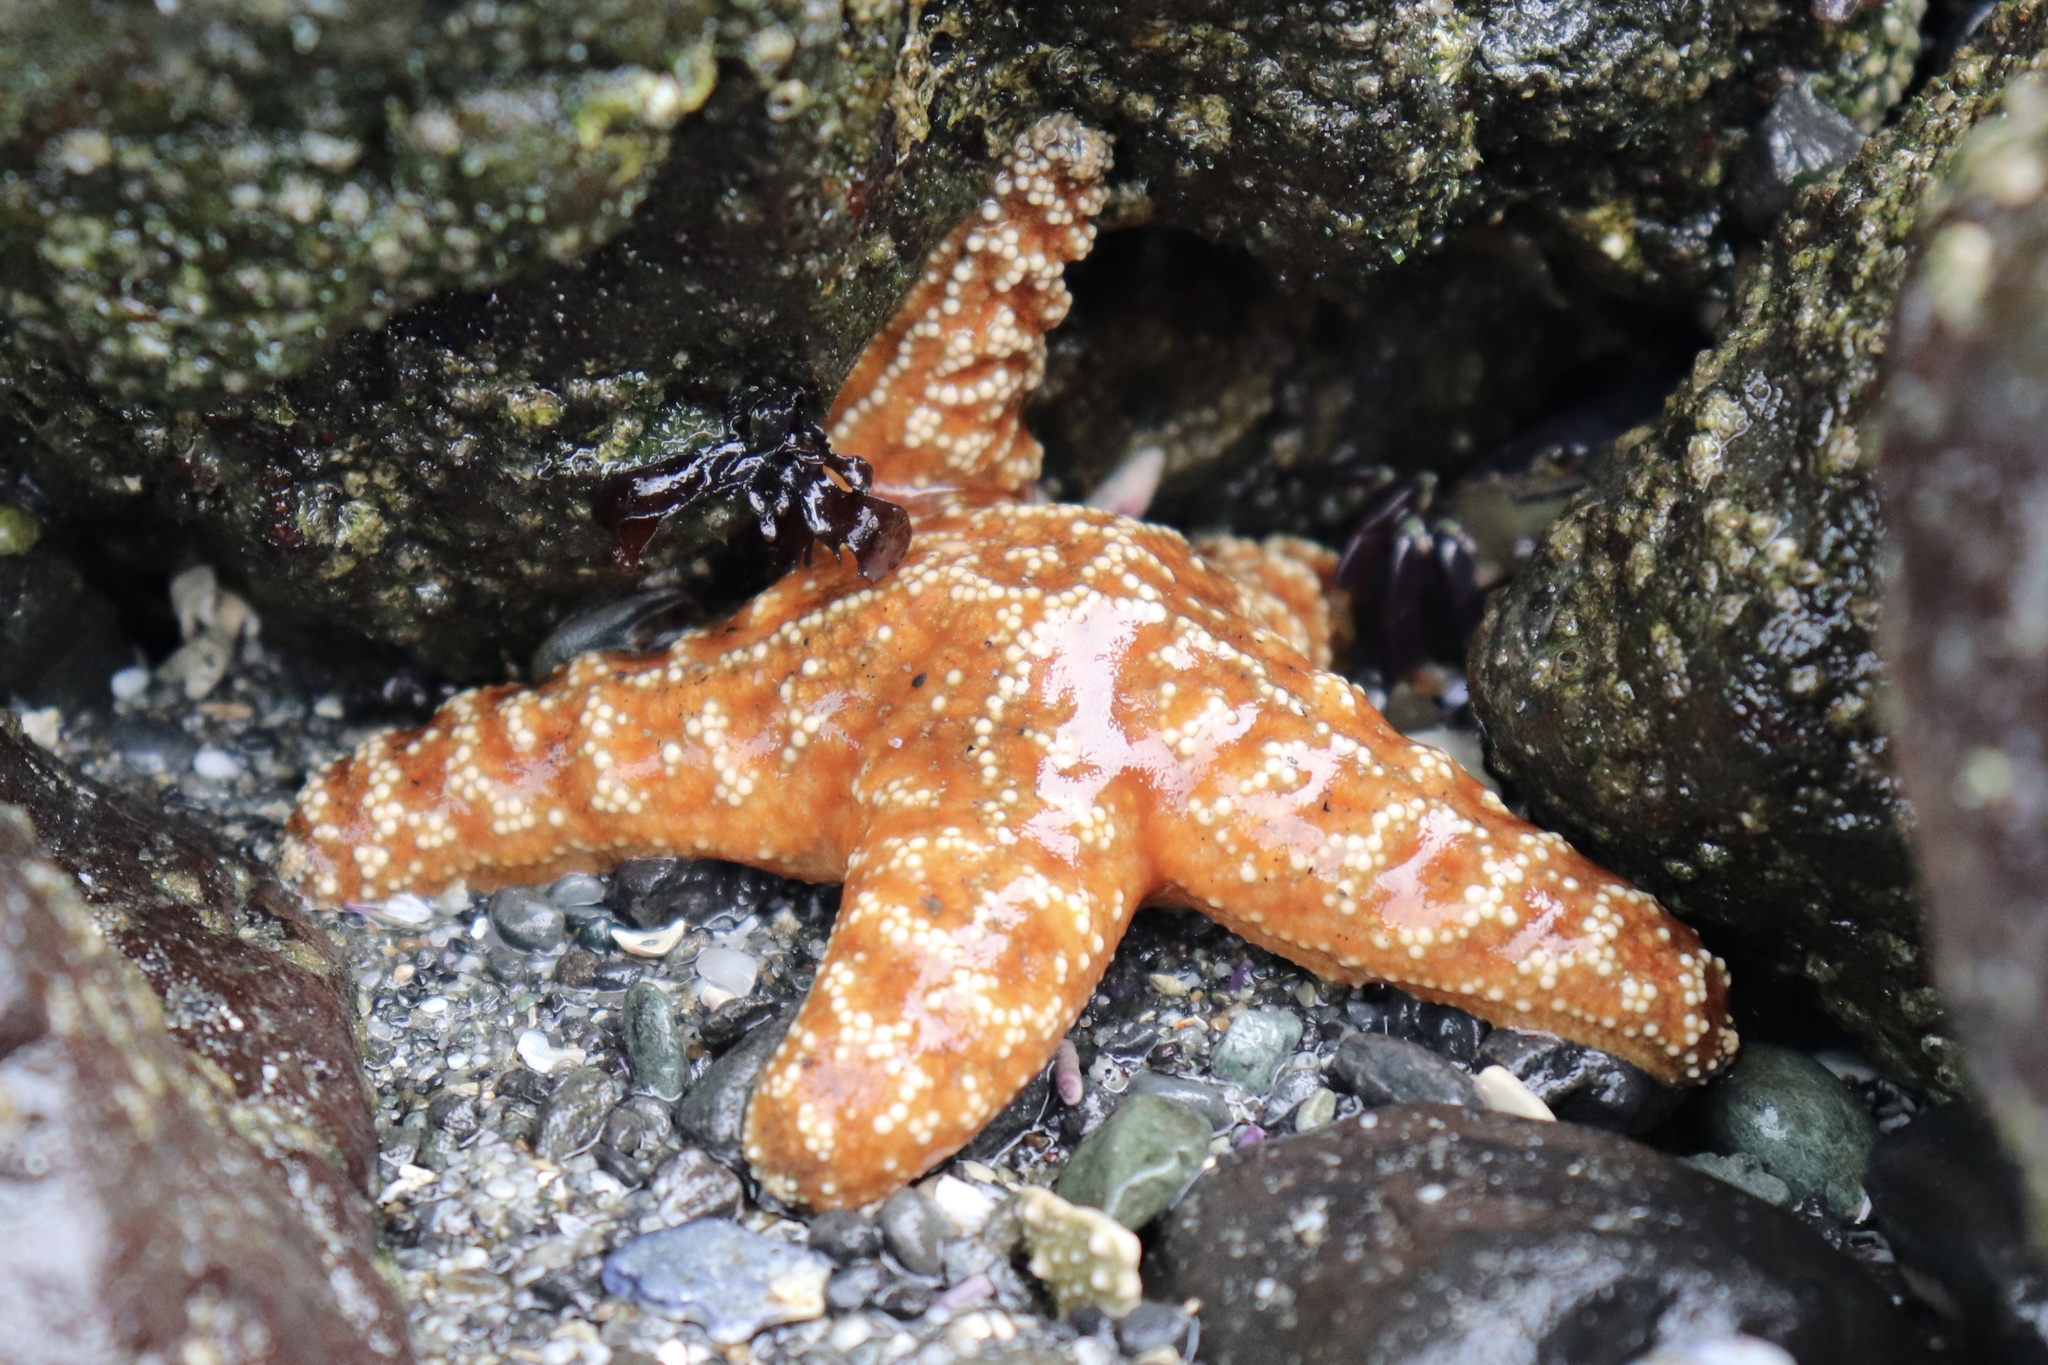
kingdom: Animalia
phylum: Echinodermata
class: Asteroidea
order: Forcipulatida
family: Asteriidae
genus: Pisaster
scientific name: Pisaster ochraceus
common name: Ochre stars
